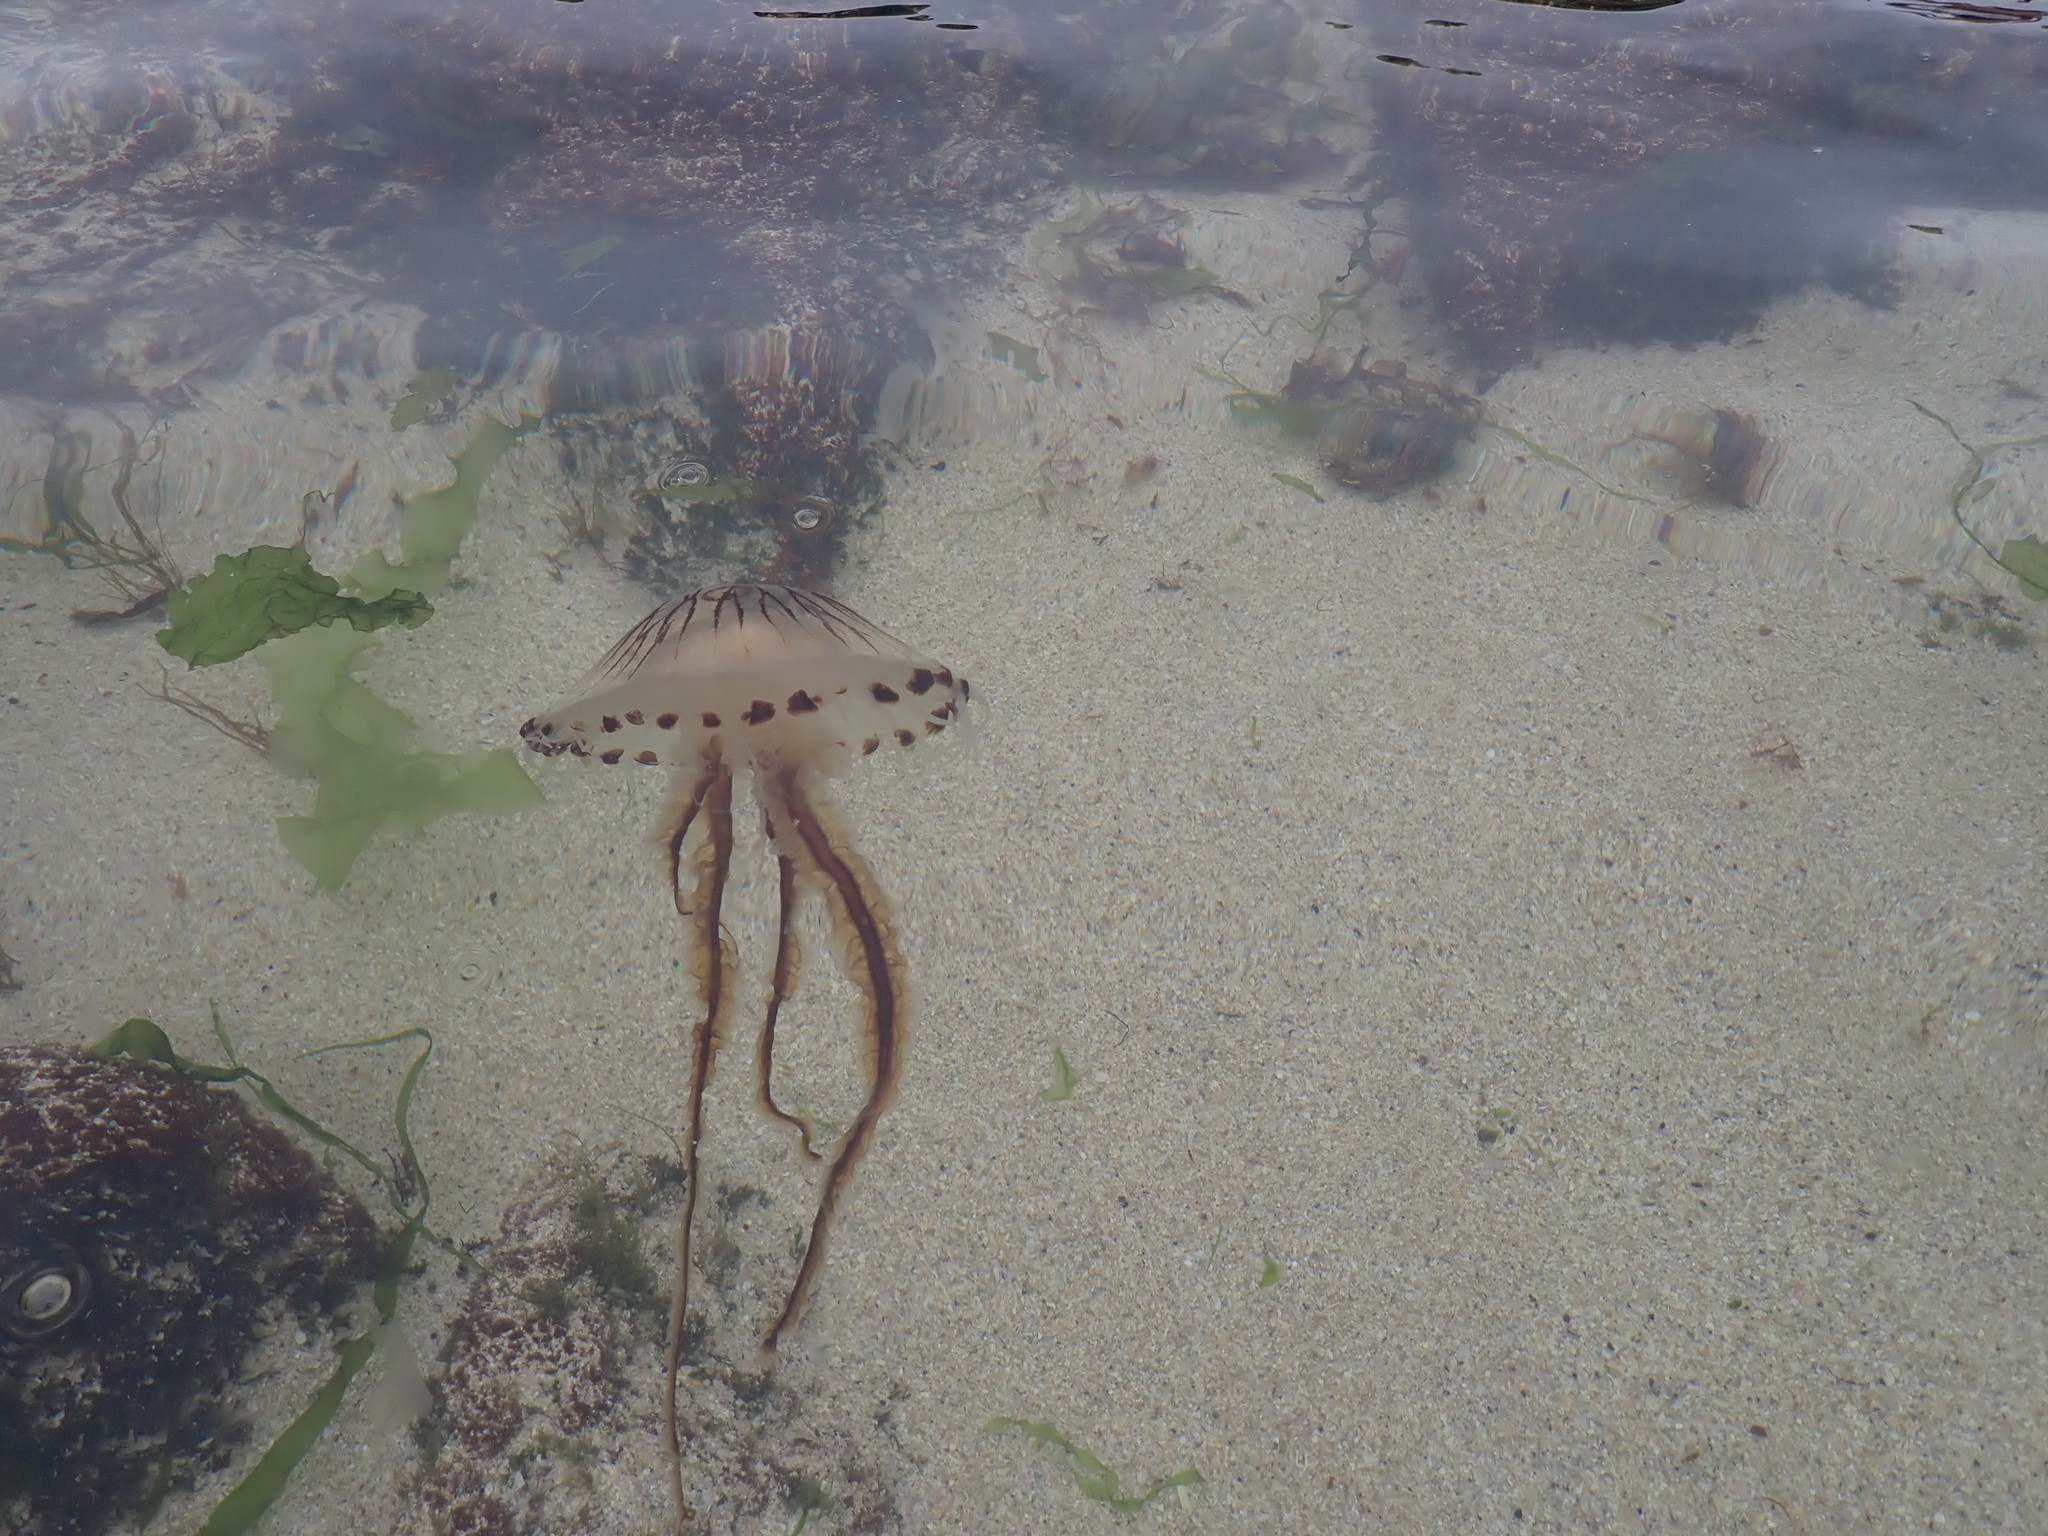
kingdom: Animalia
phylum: Cnidaria
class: Scyphozoa
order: Semaeostomeae
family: Pelagiidae
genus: Chrysaora
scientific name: Chrysaora hysoscella
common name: Compass jellyfish
